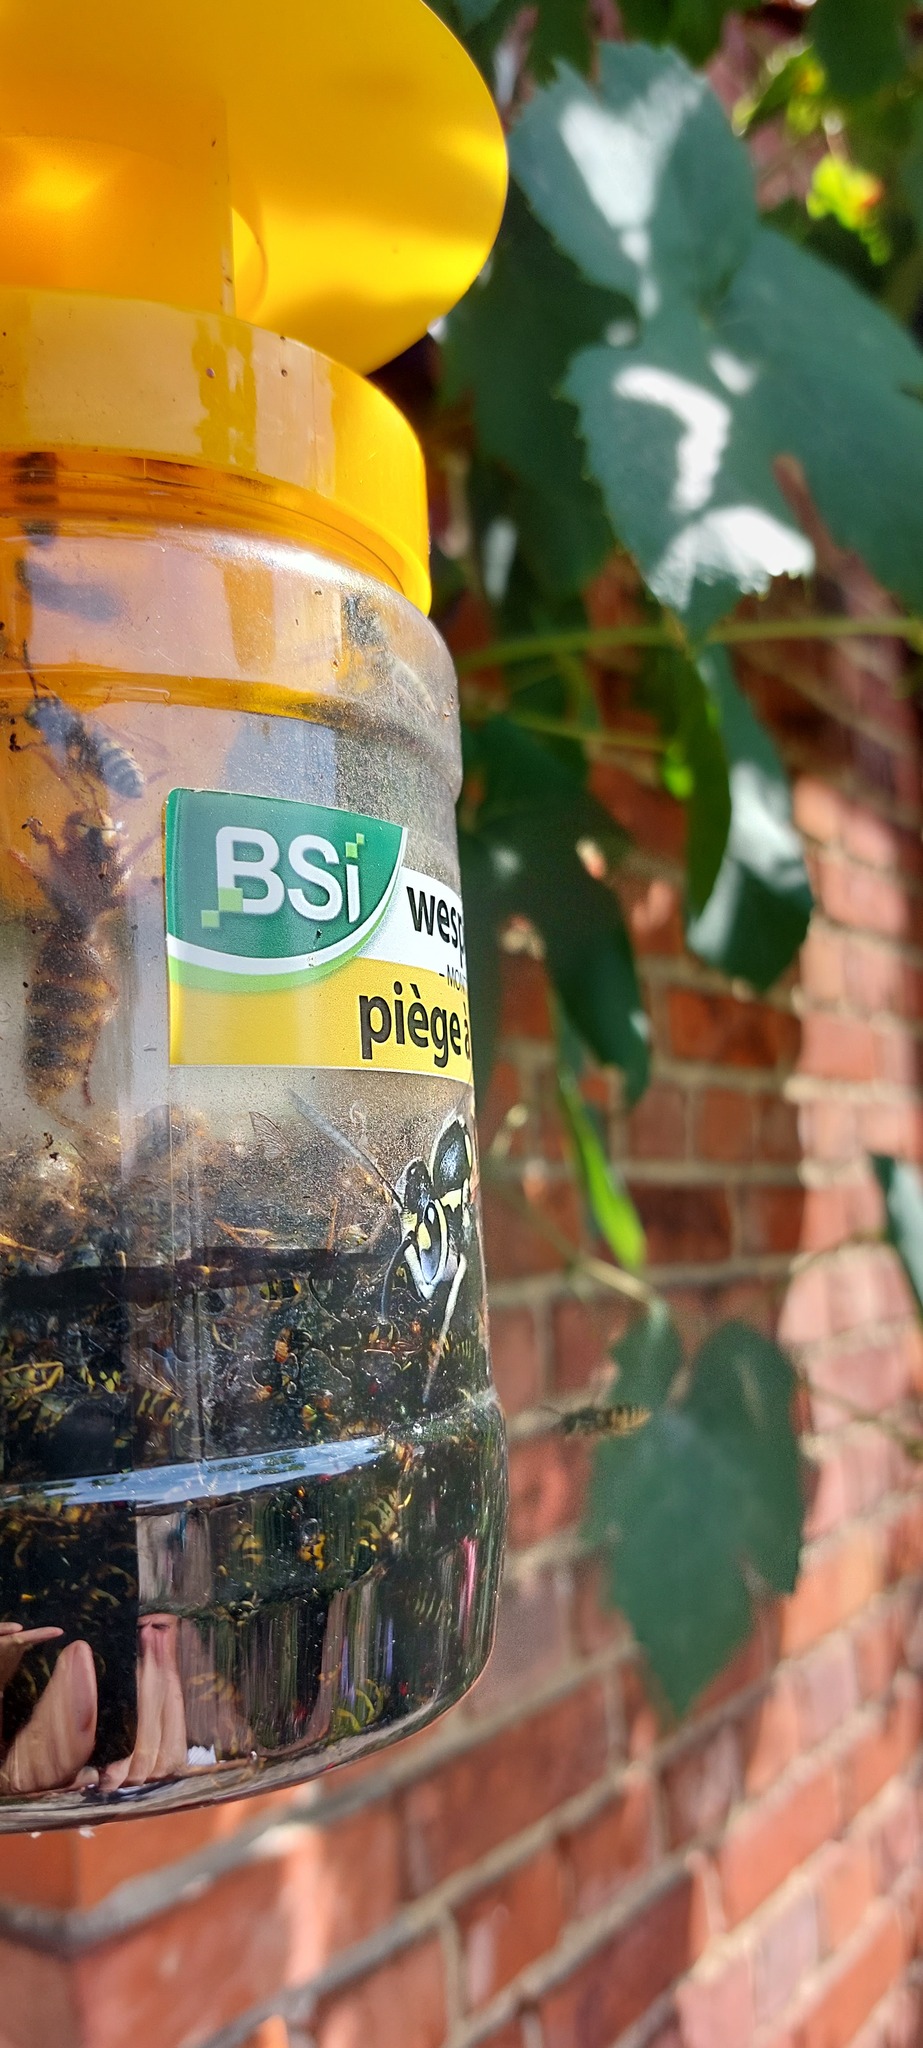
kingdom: Animalia
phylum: Arthropoda
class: Insecta
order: Hymenoptera
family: Vespidae
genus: Vespa
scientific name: Vespa crabro
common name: Hornet
